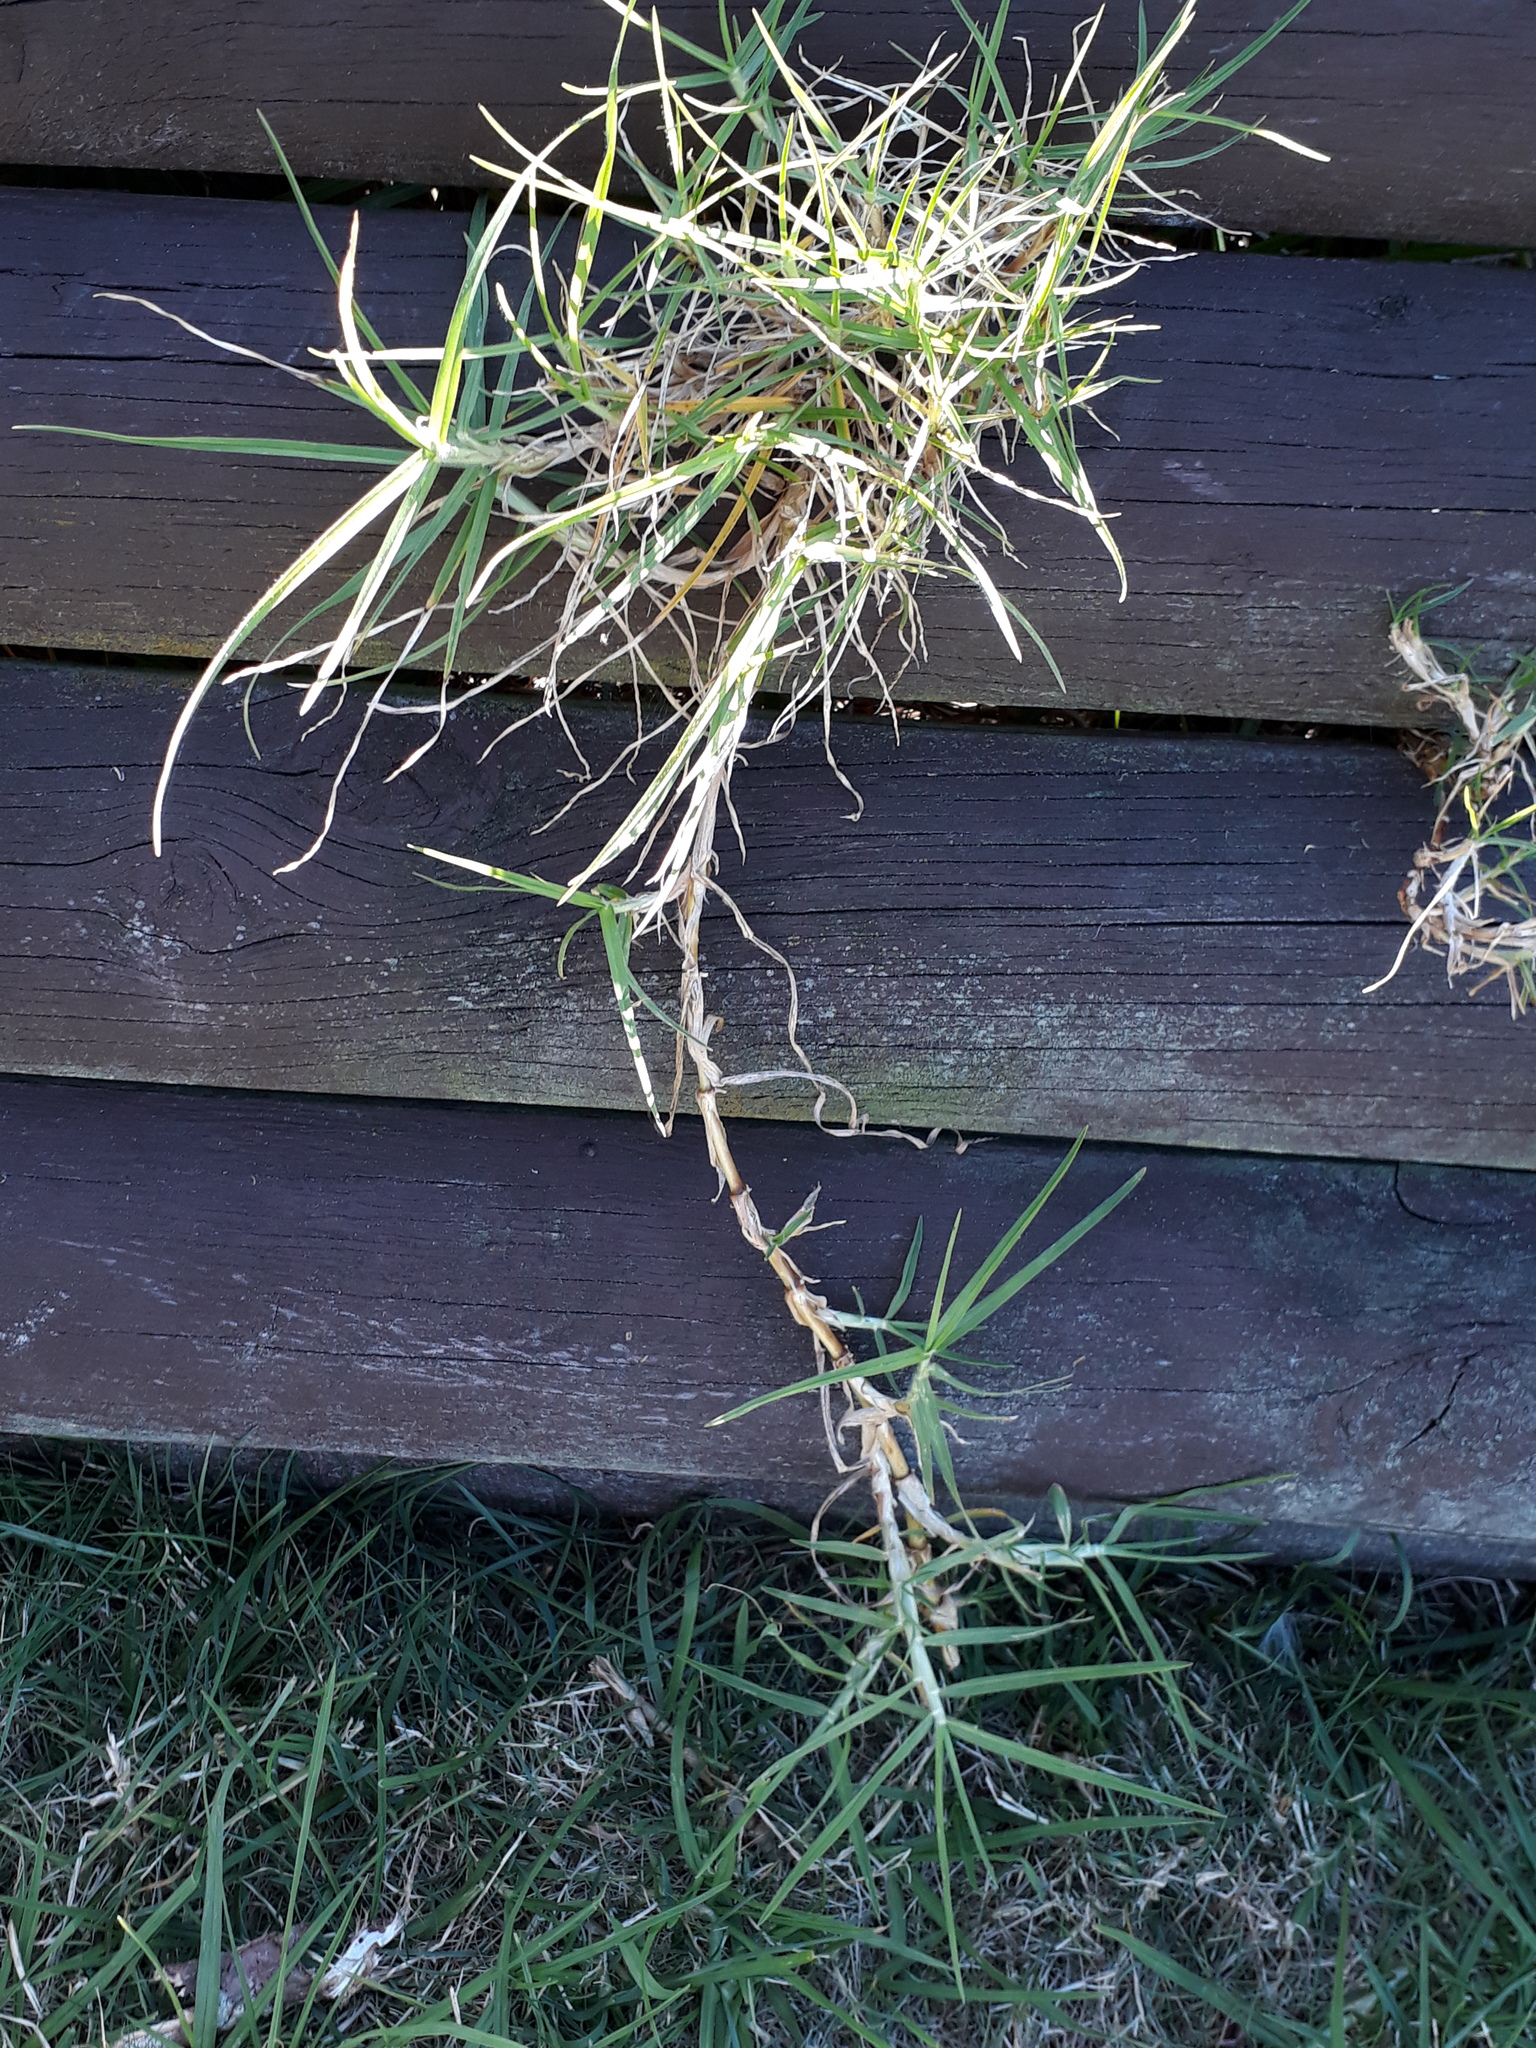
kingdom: Plantae
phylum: Tracheophyta
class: Liliopsida
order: Poales
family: Poaceae
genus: Cenchrus
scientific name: Cenchrus clandestinus
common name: Kikuyugrass
